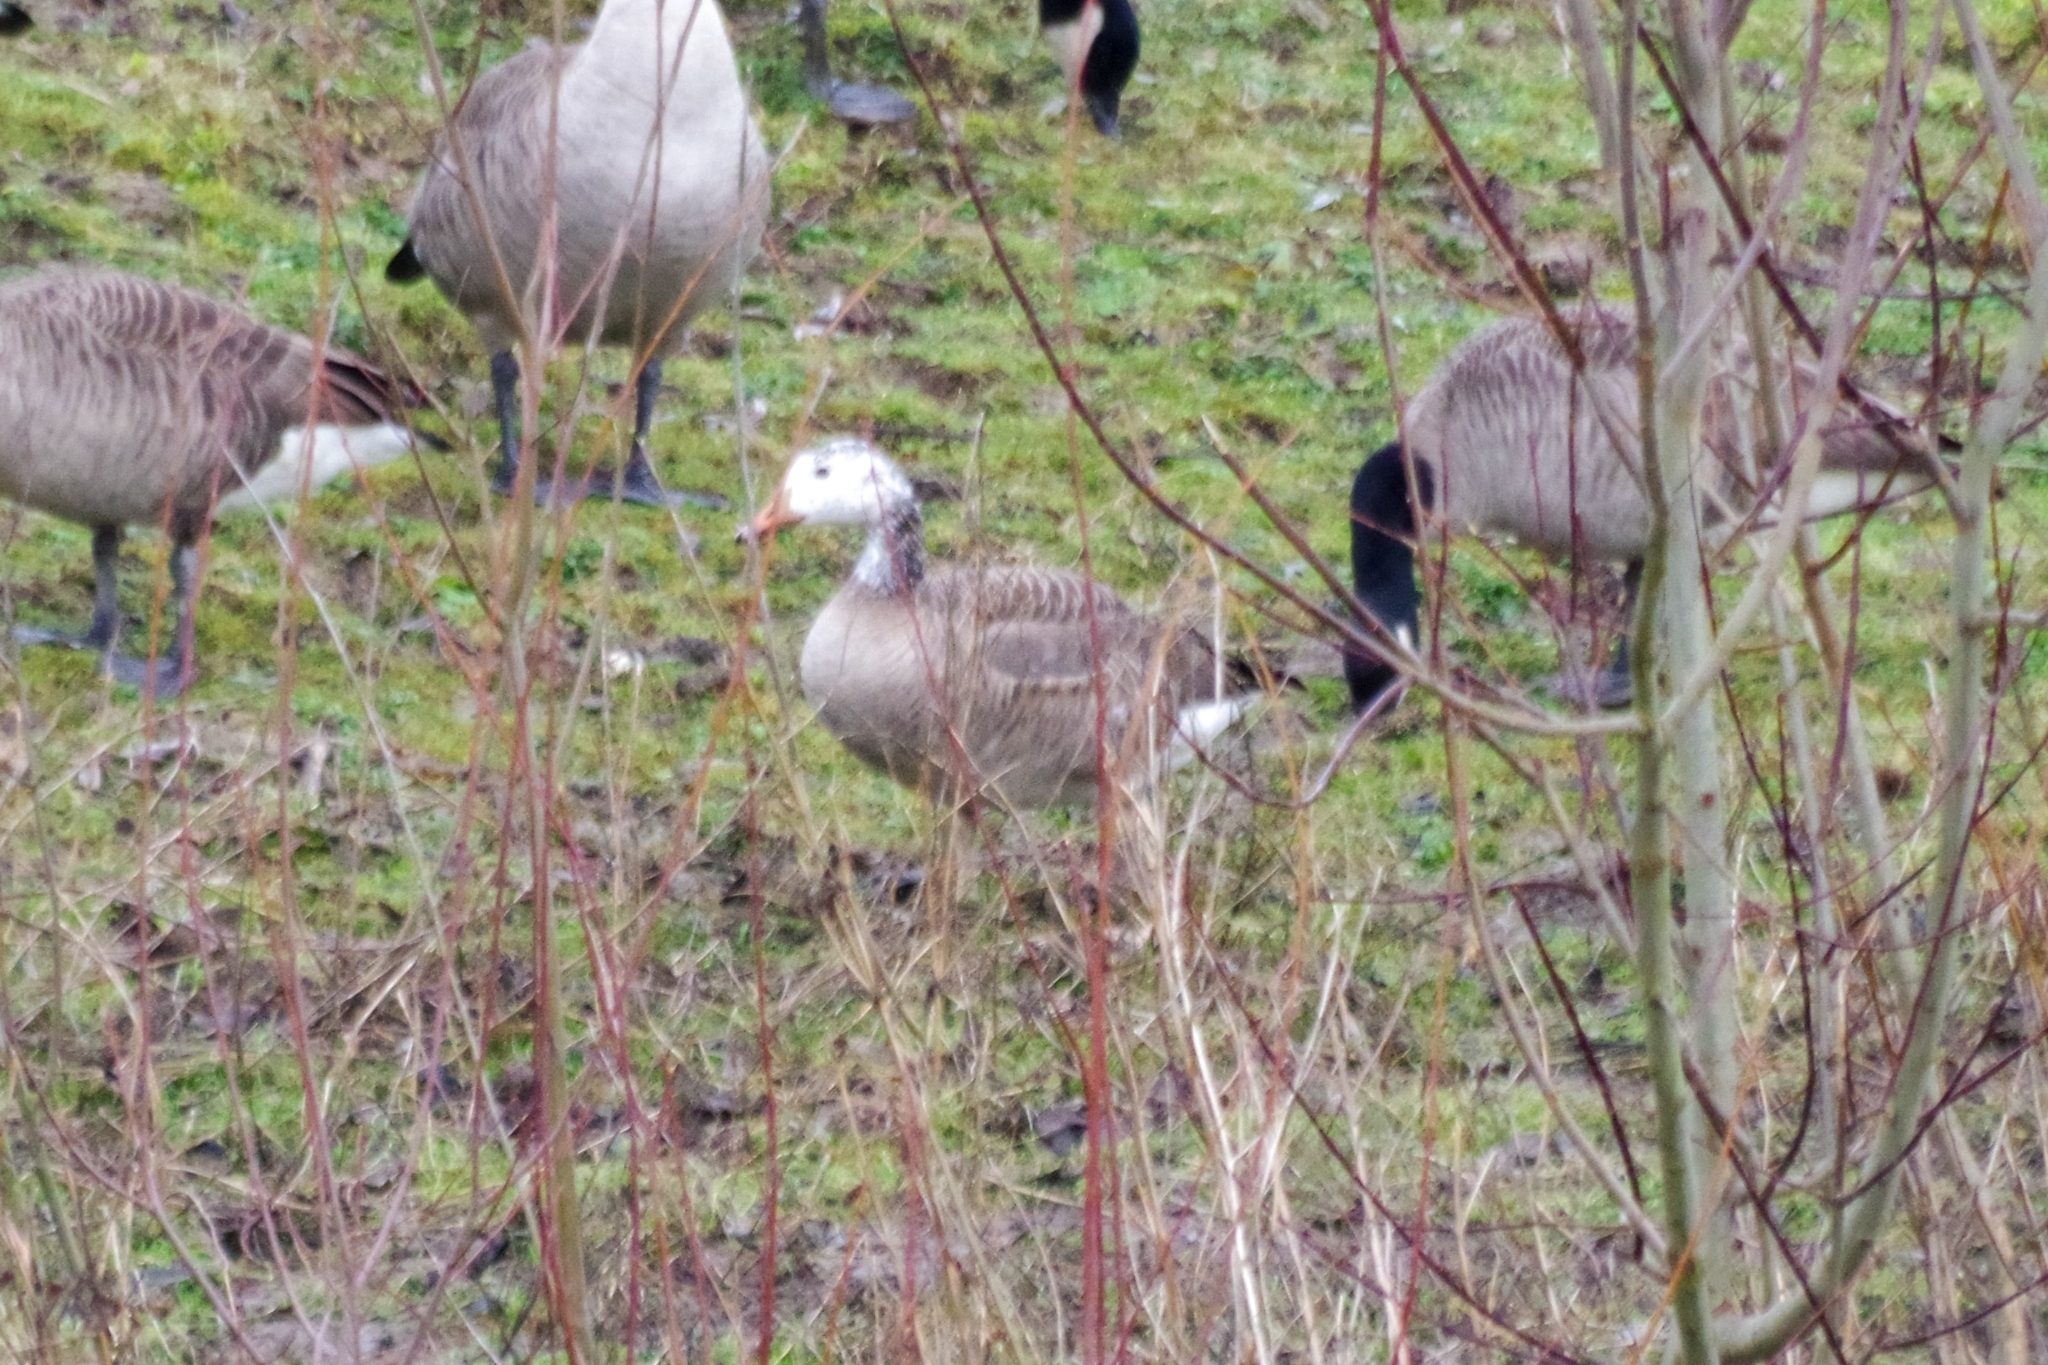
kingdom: Animalia
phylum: Chordata
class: Aves
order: Anseriformes
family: Anatidae
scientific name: Anatidae
